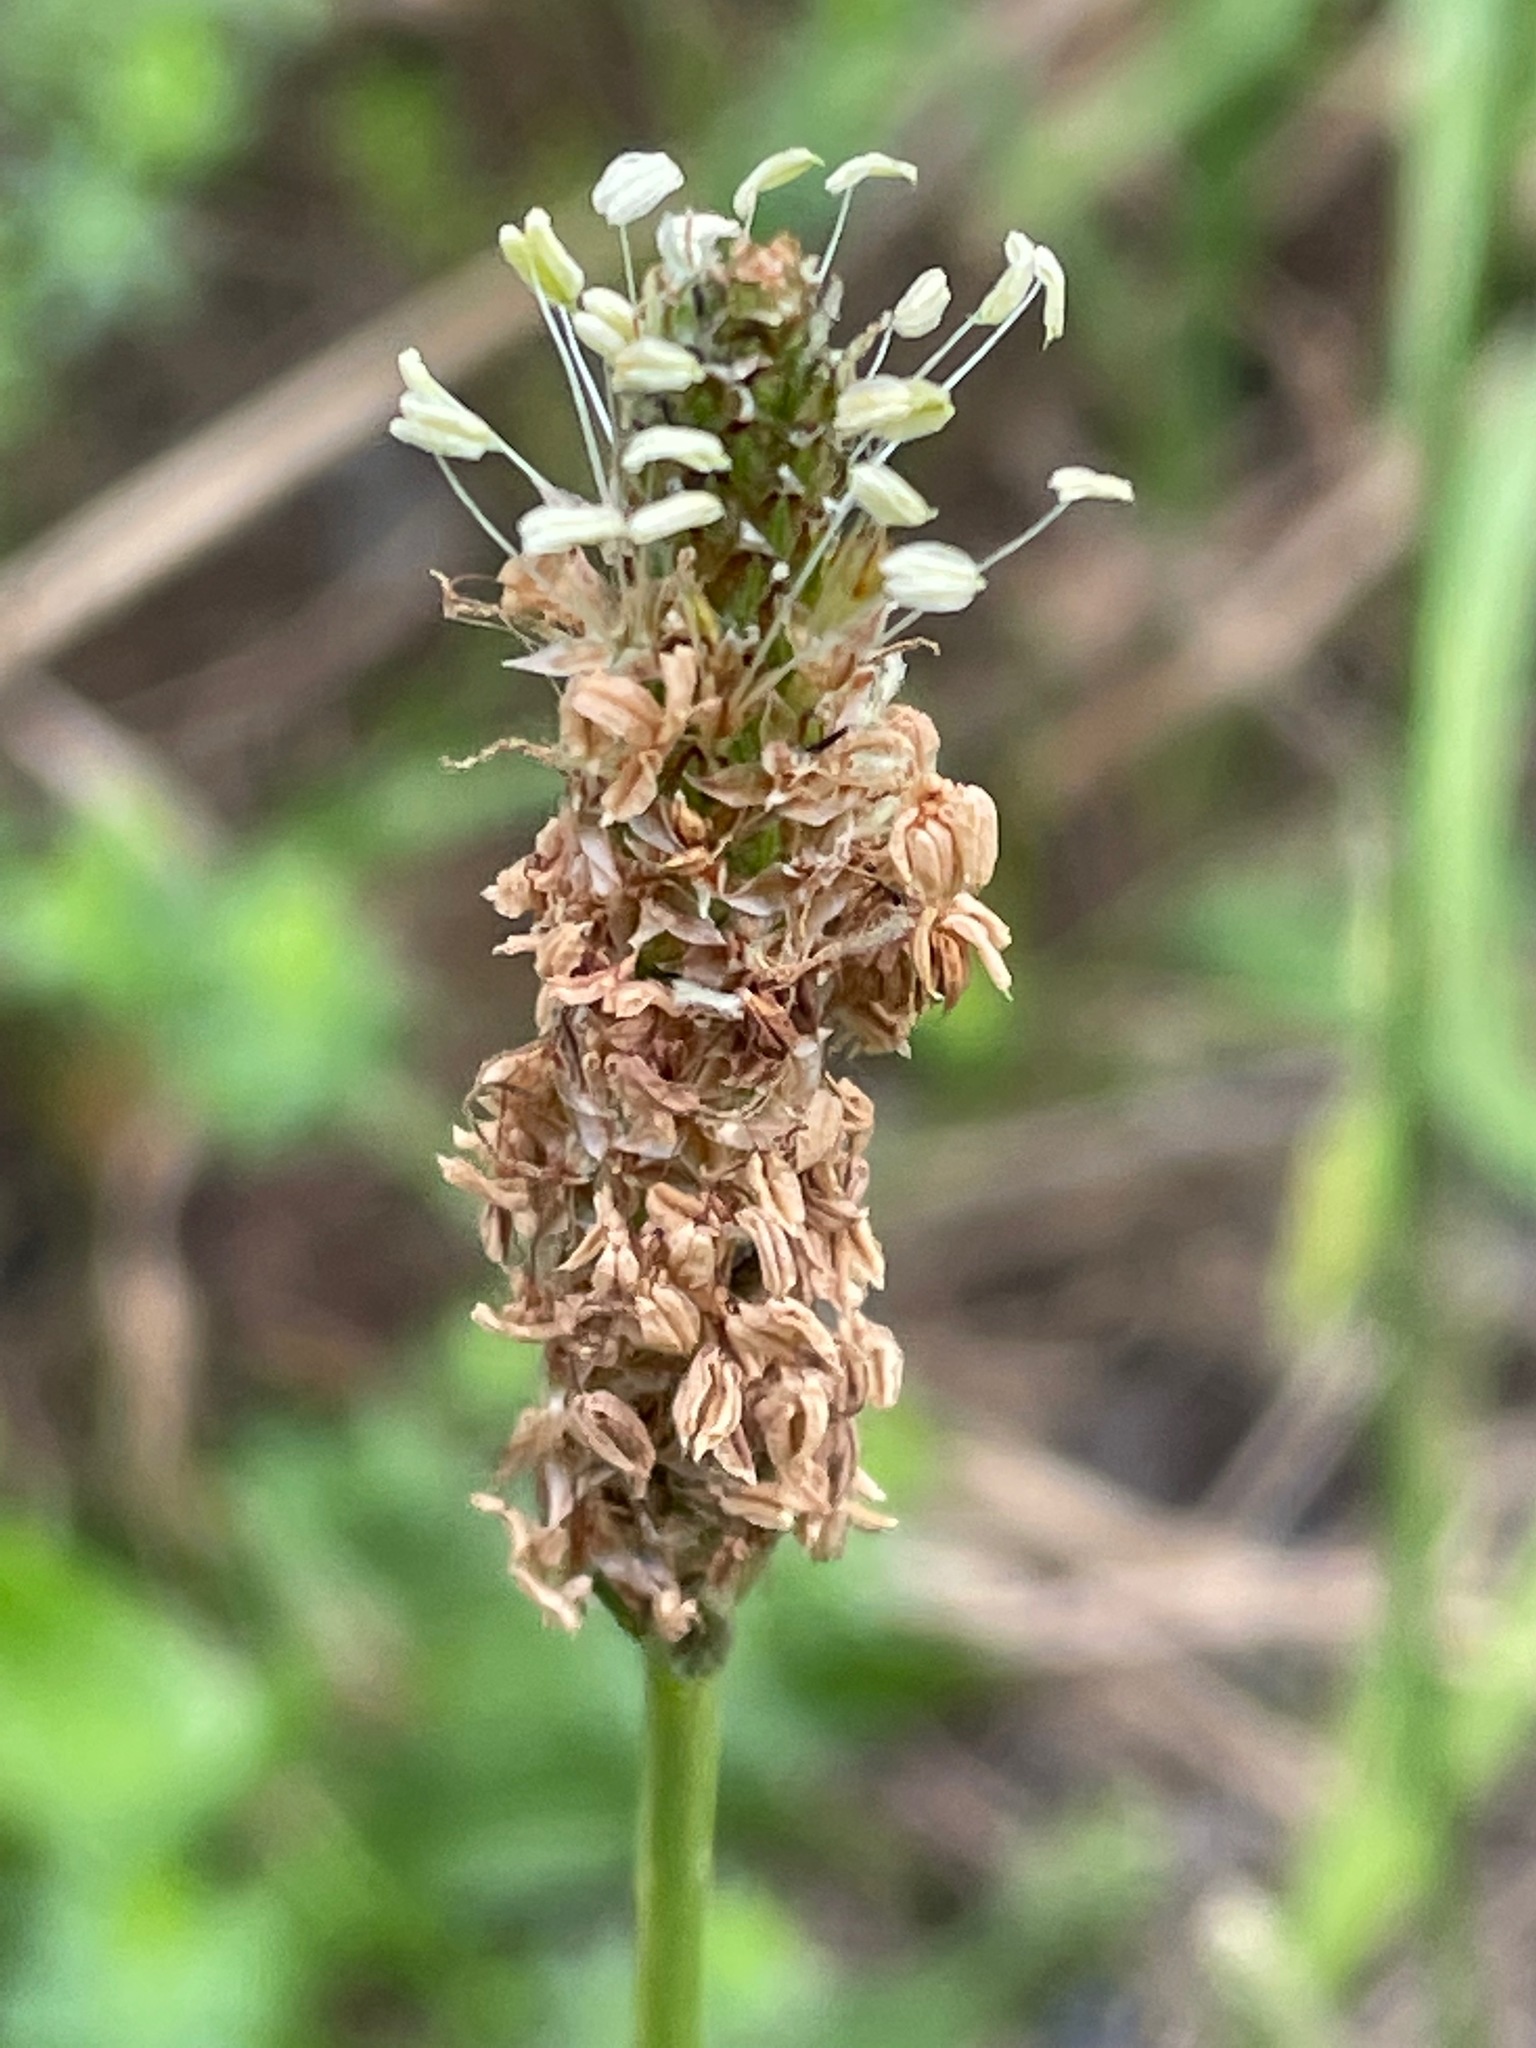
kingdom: Plantae
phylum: Tracheophyta
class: Magnoliopsida
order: Lamiales
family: Plantaginaceae
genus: Plantago
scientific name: Plantago lanceolata
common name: Ribwort plantain
